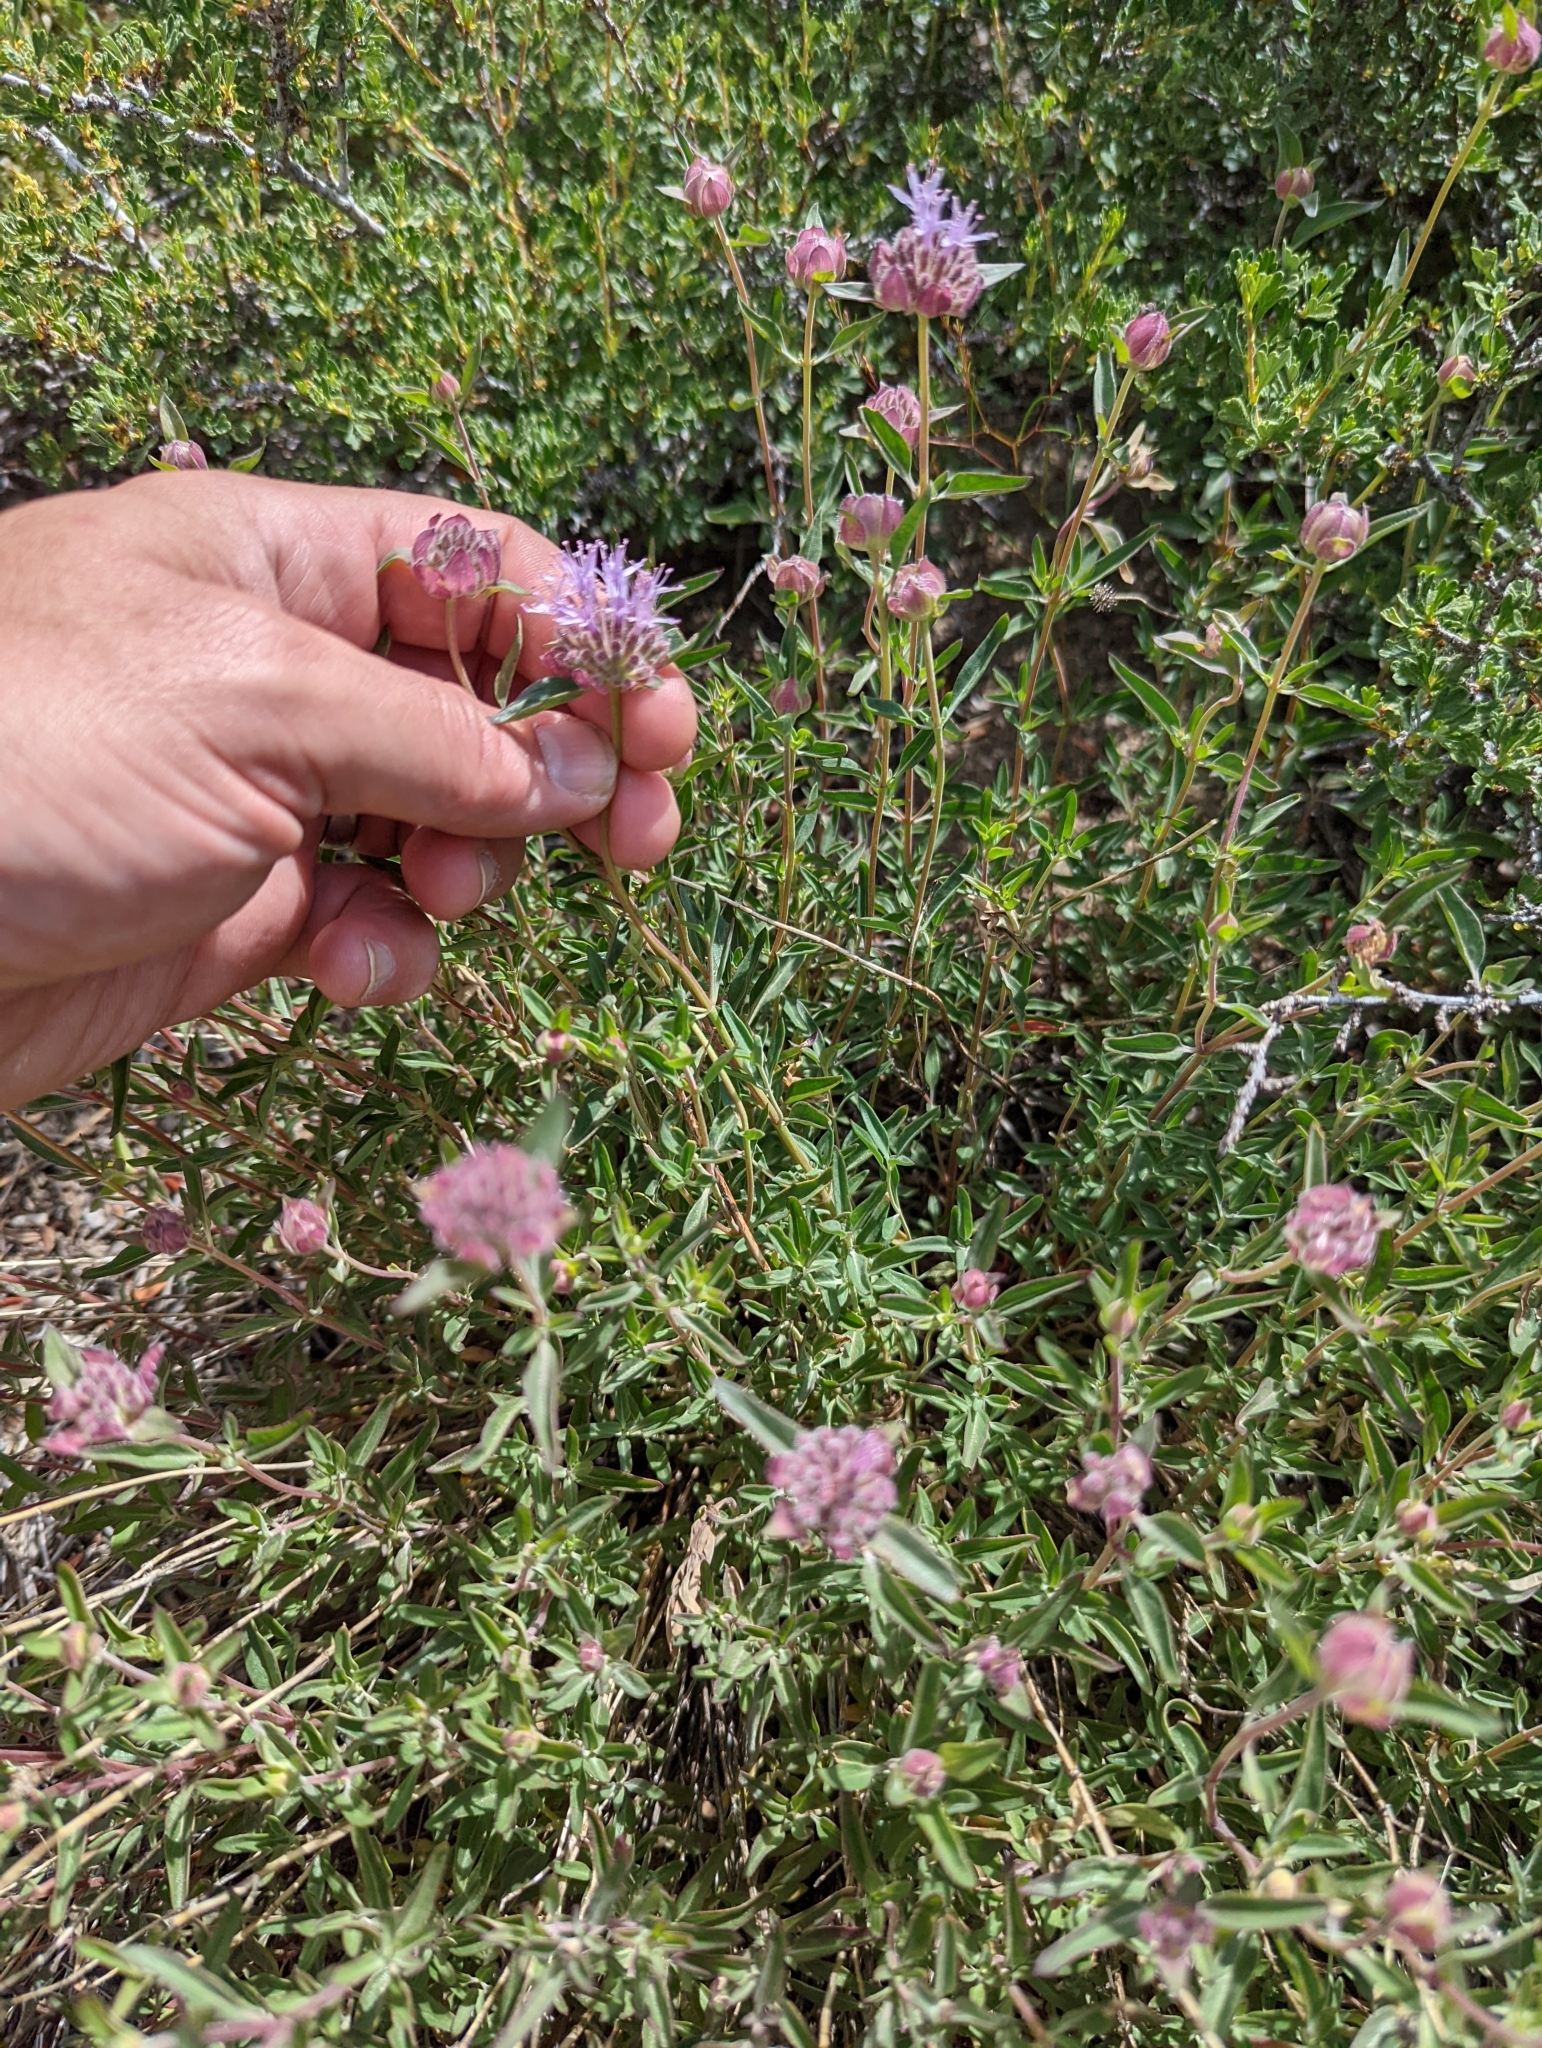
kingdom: Plantae
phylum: Tracheophyta
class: Magnoliopsida
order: Lamiales
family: Lamiaceae
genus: Monardella
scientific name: Monardella odoratissima
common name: Pacific monardella
